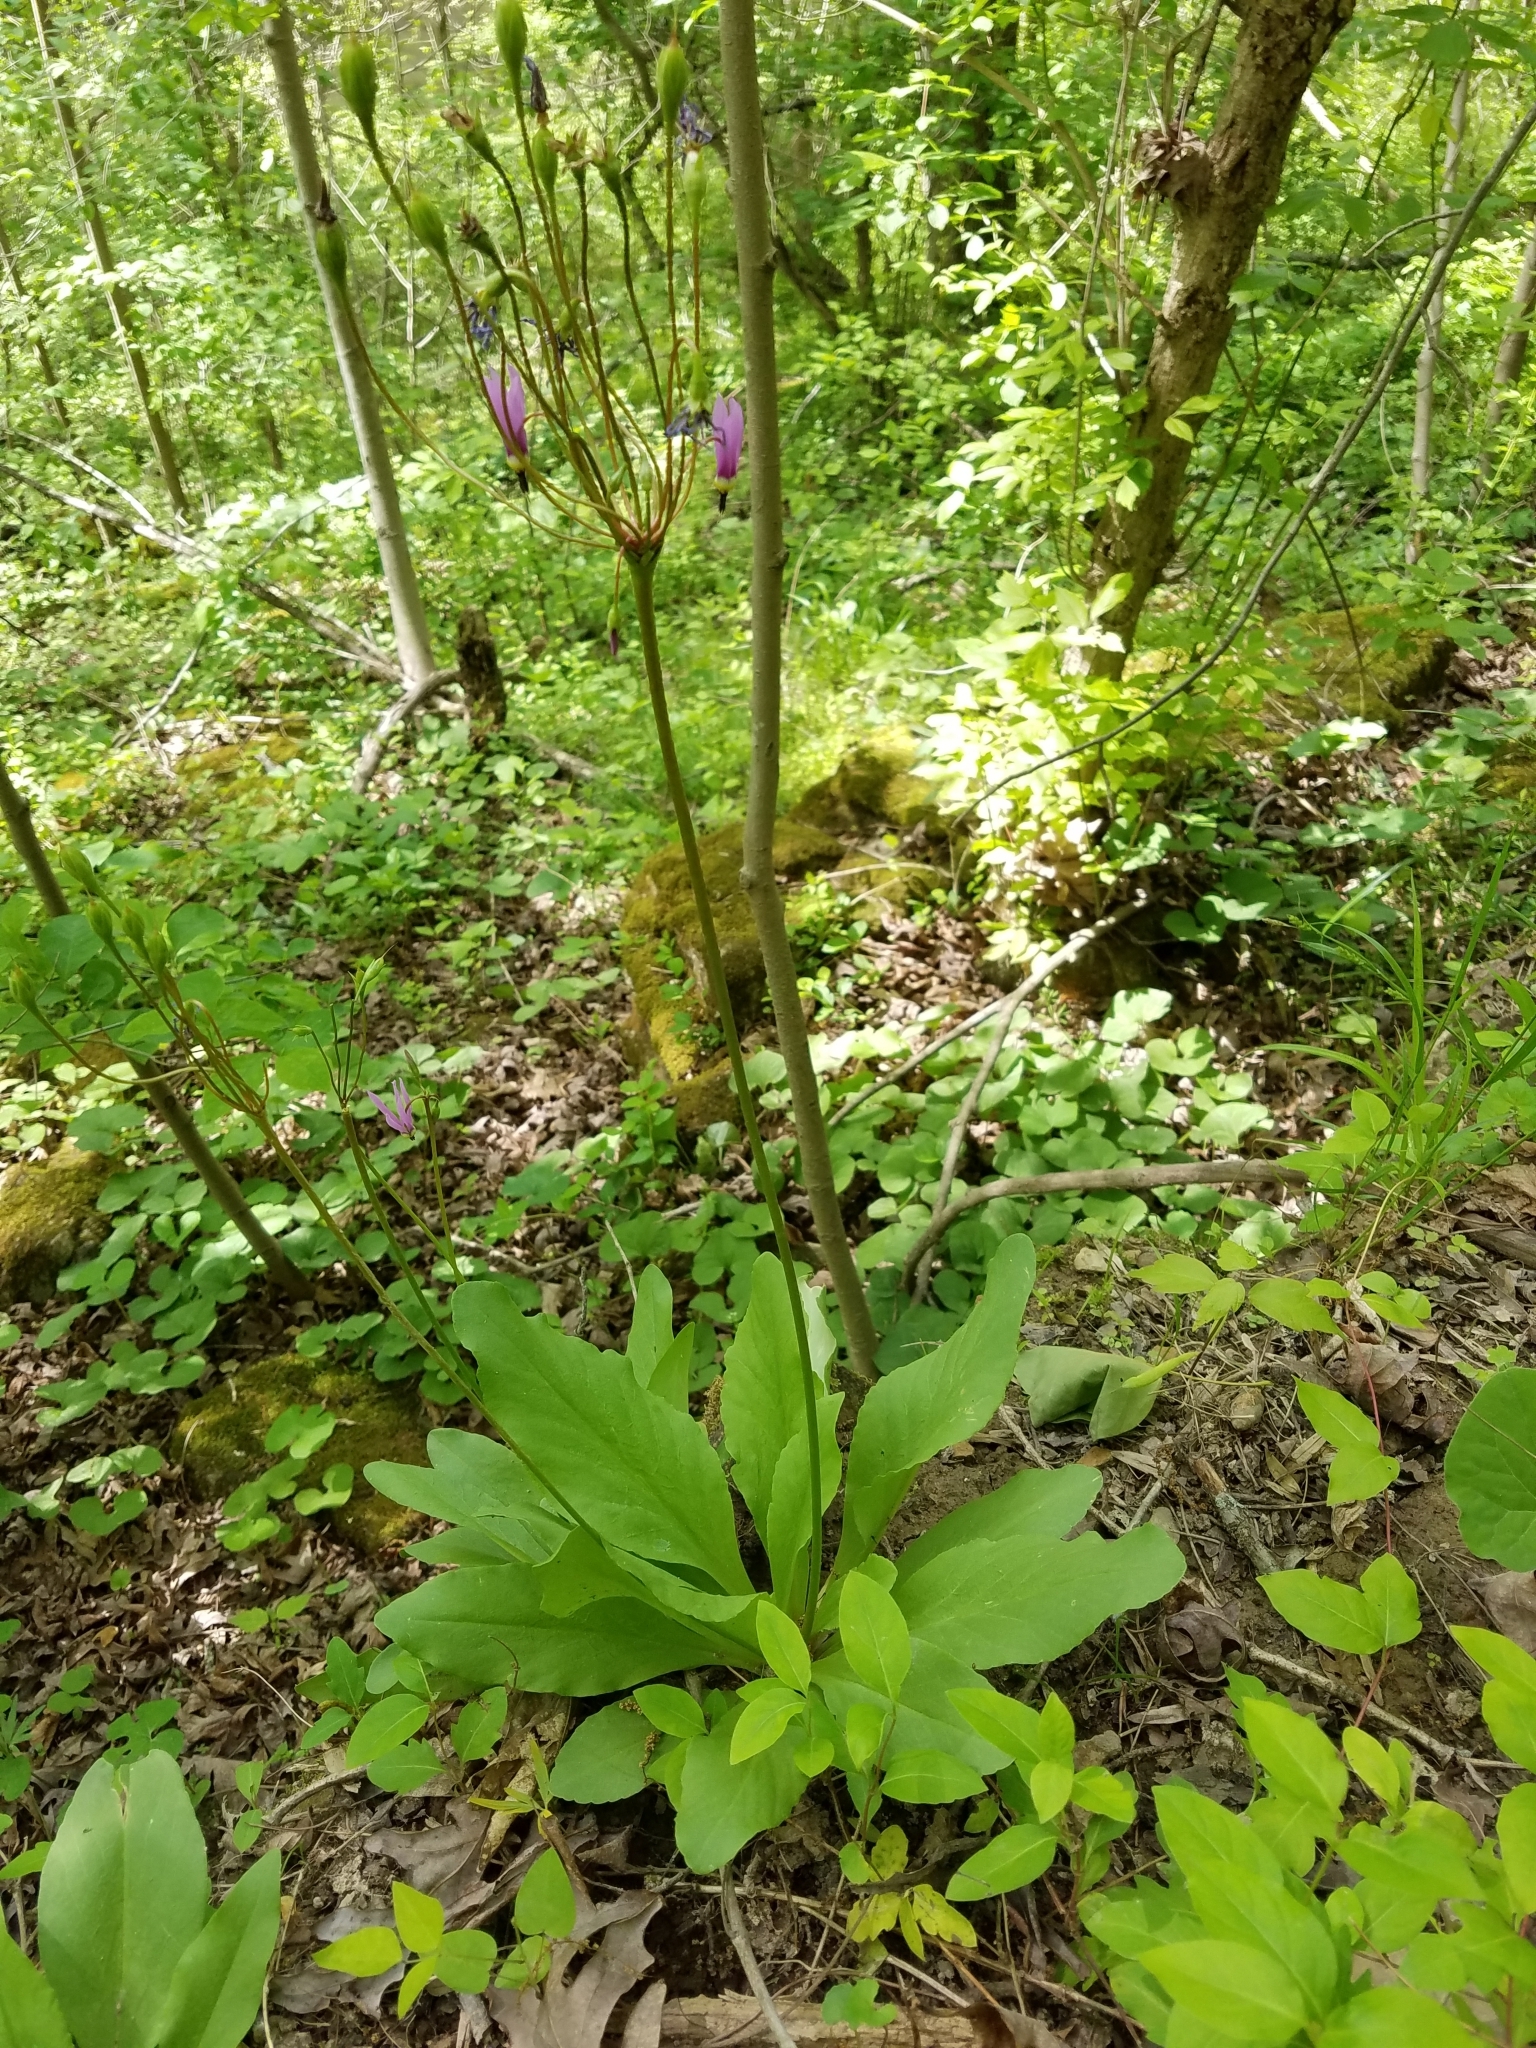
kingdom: Plantae
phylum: Tracheophyta
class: Magnoliopsida
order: Ericales
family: Primulaceae
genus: Dodecatheon
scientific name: Dodecatheon meadia
